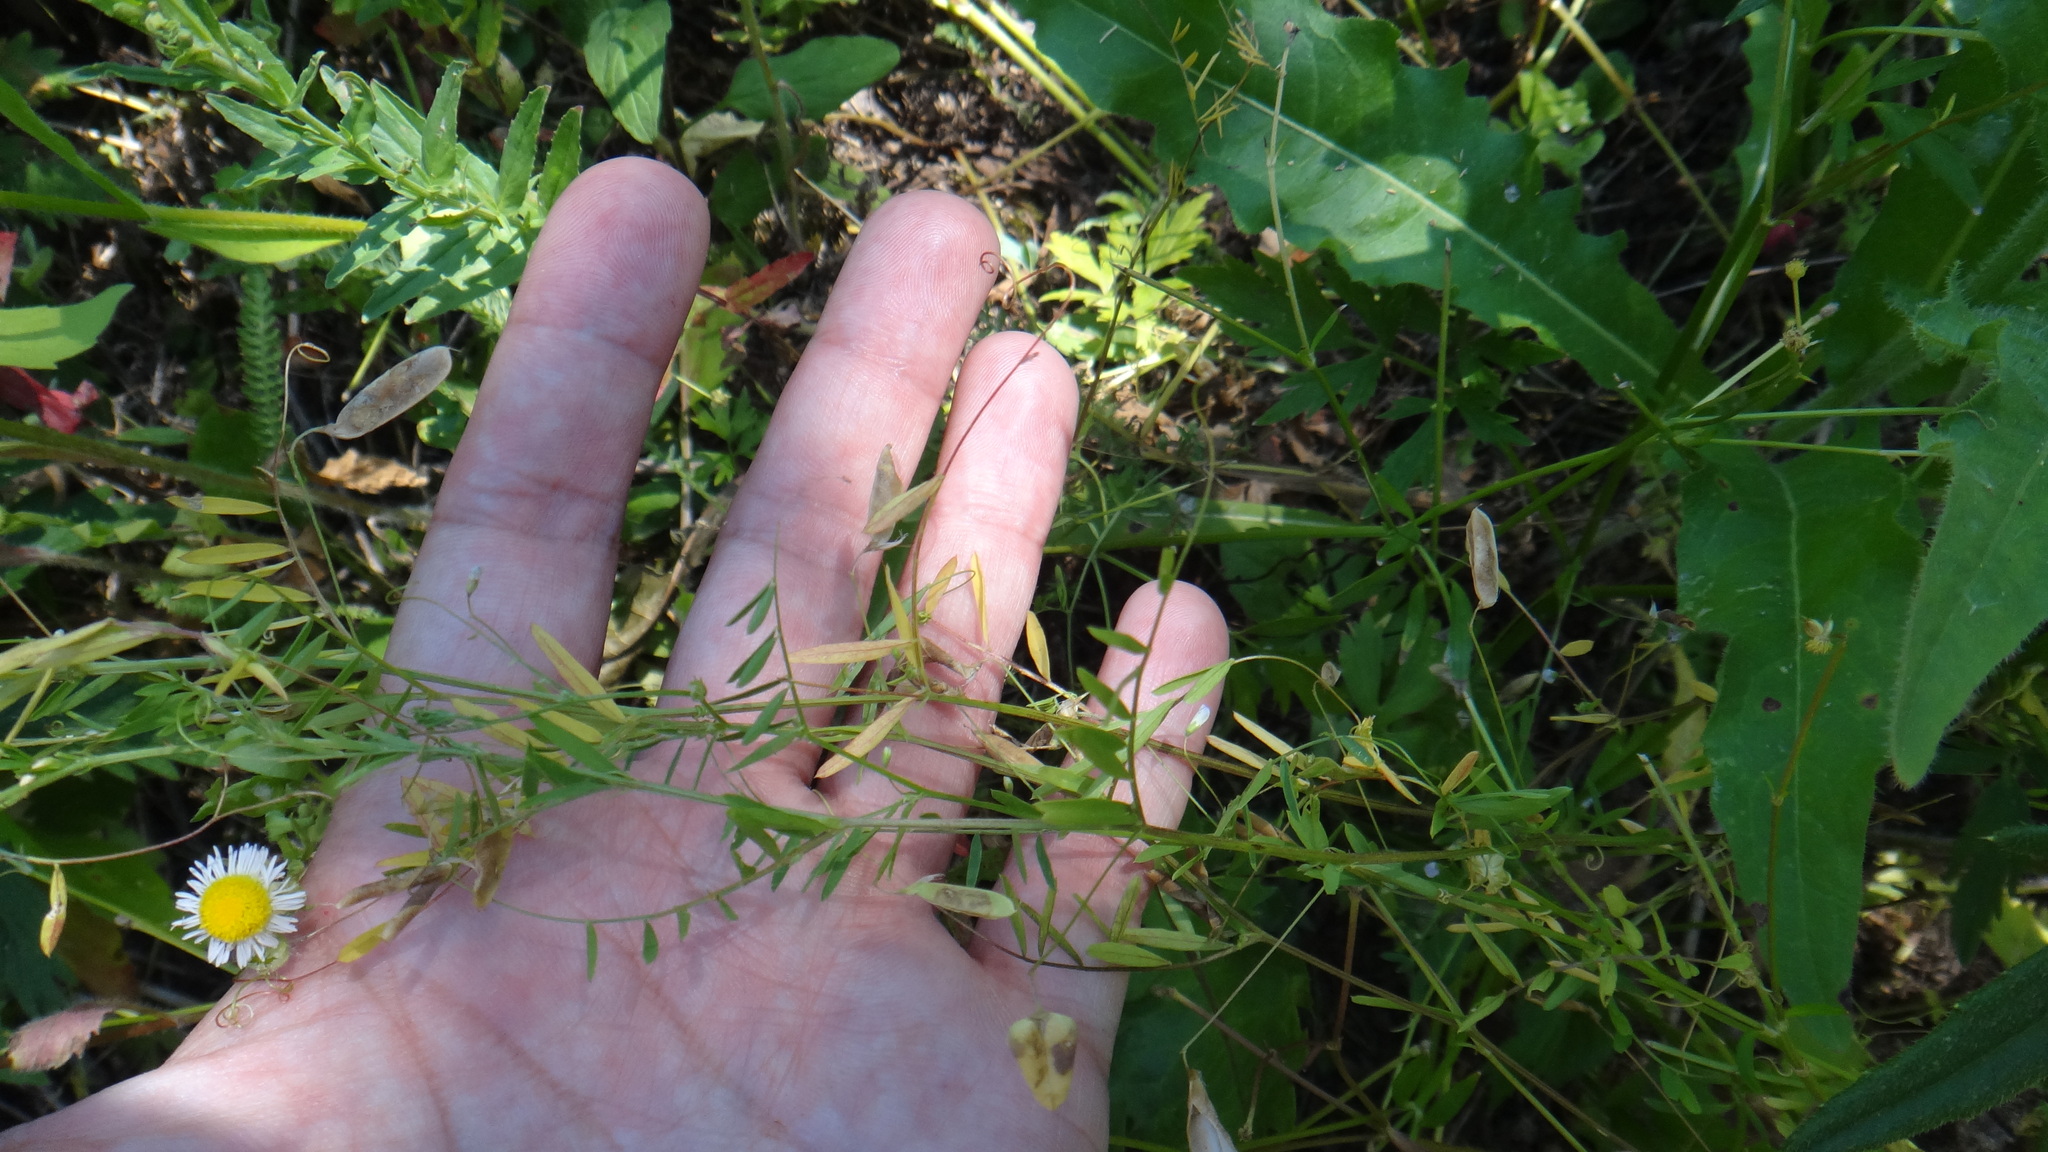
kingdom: Plantae
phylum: Tracheophyta
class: Magnoliopsida
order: Fabales
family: Fabaceae
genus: Vicia
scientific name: Vicia tetrasperma
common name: Smooth tare
